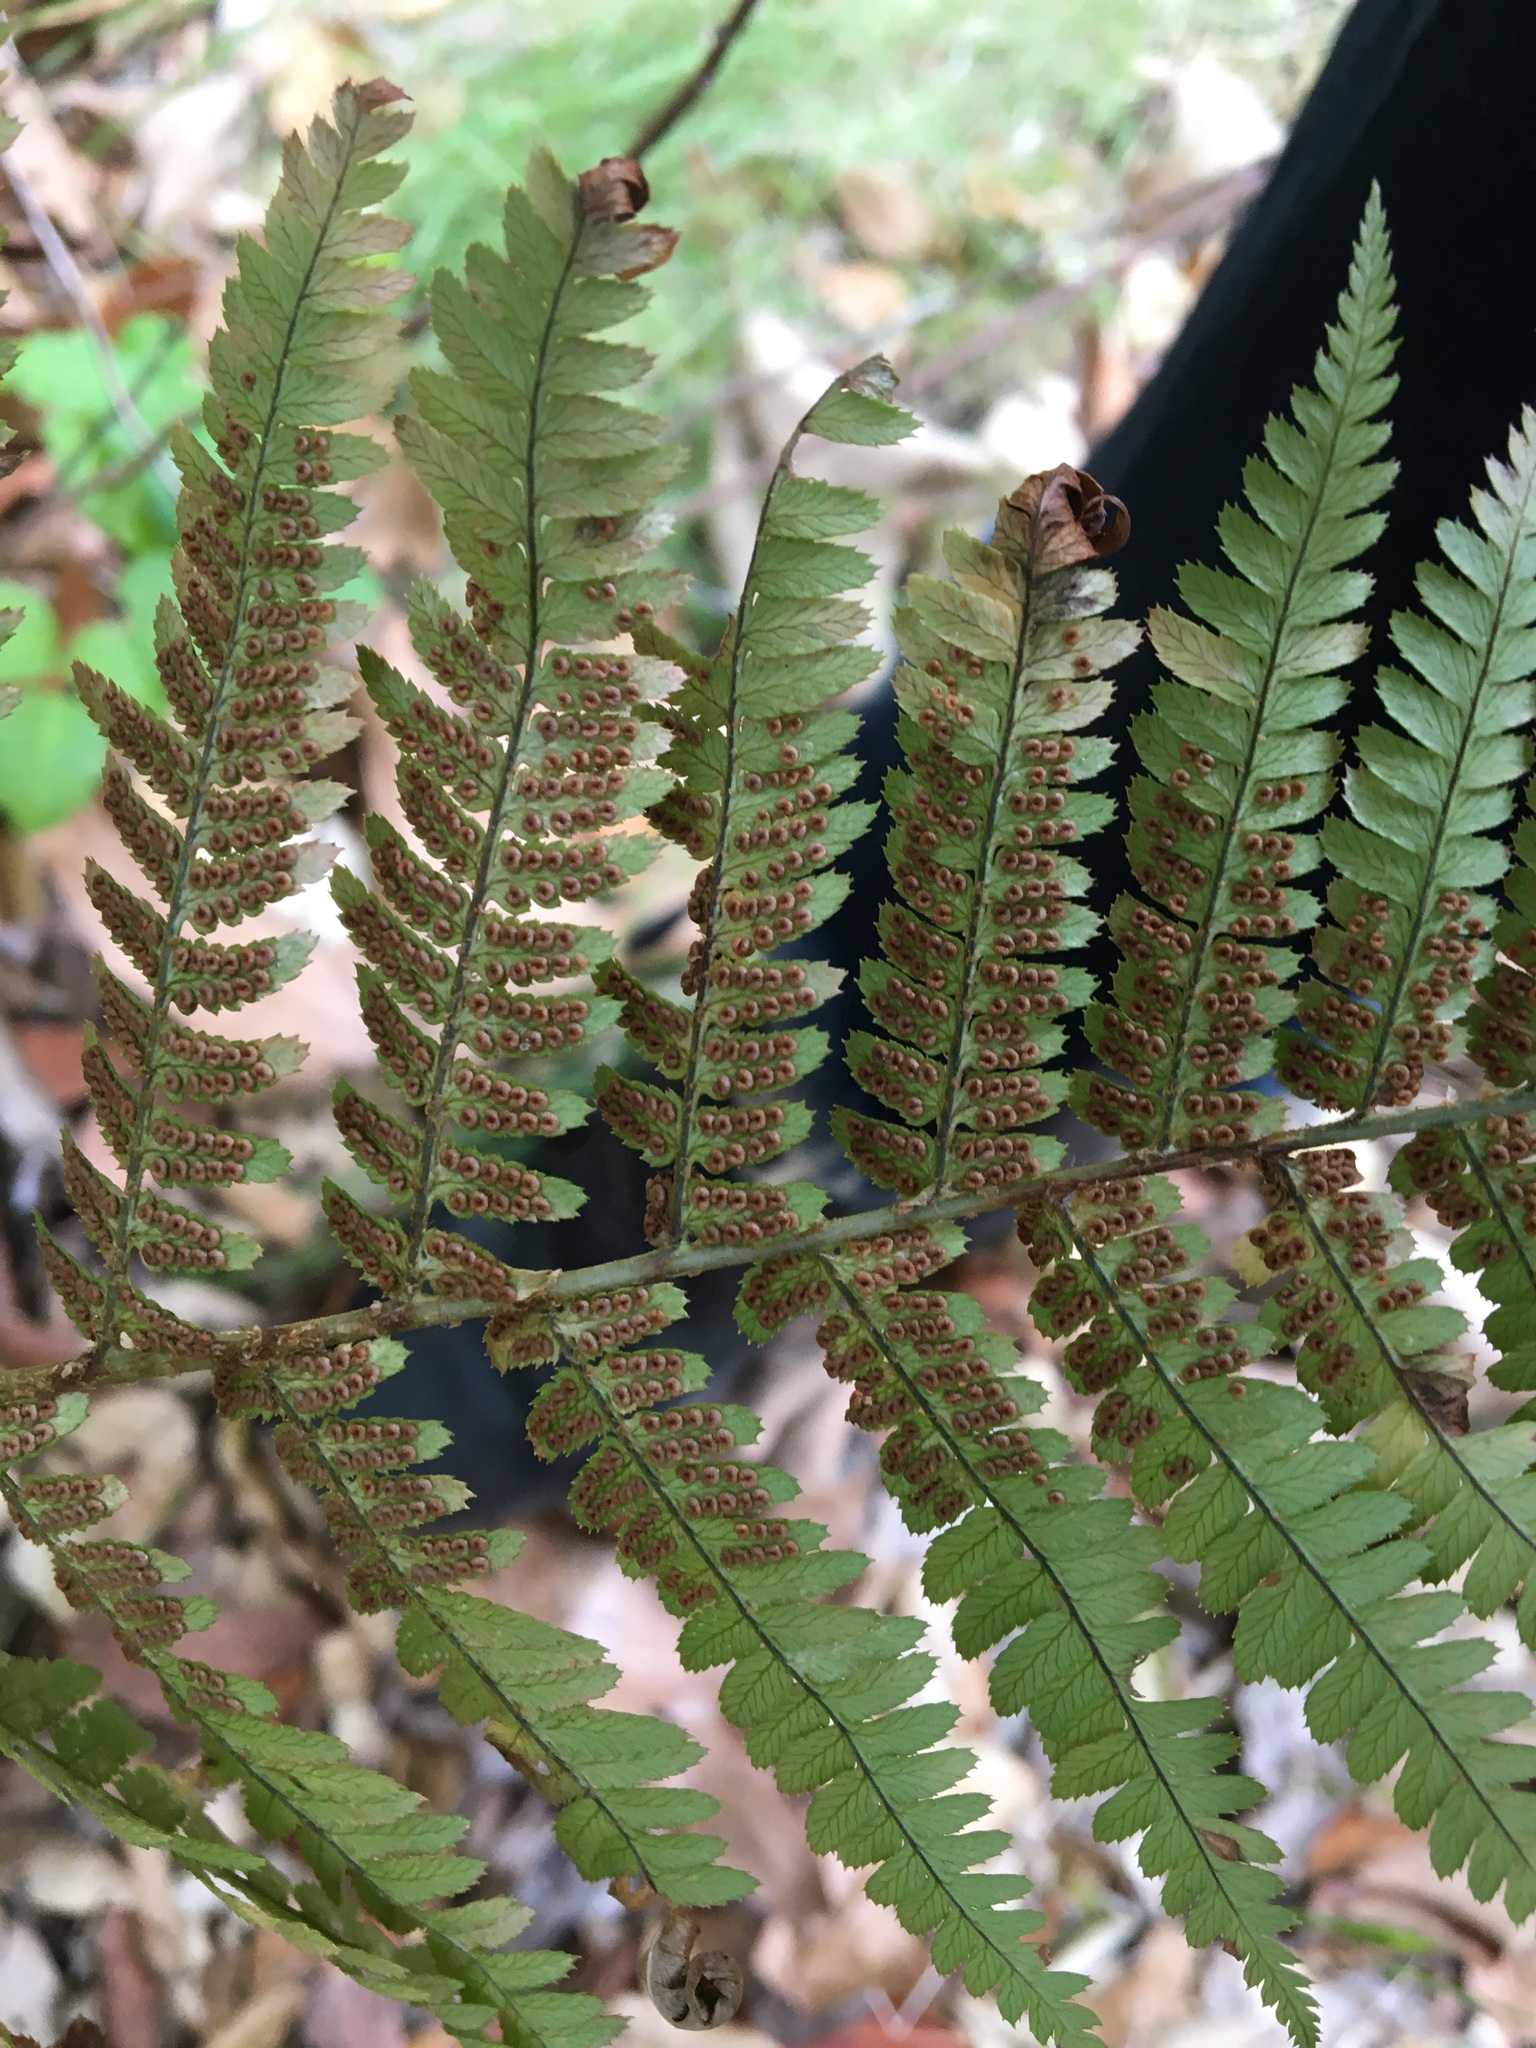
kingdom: Plantae
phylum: Tracheophyta
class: Polypodiopsida
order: Polypodiales
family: Dryopteridaceae
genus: Dryopteris
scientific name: Dryopteris arguta
